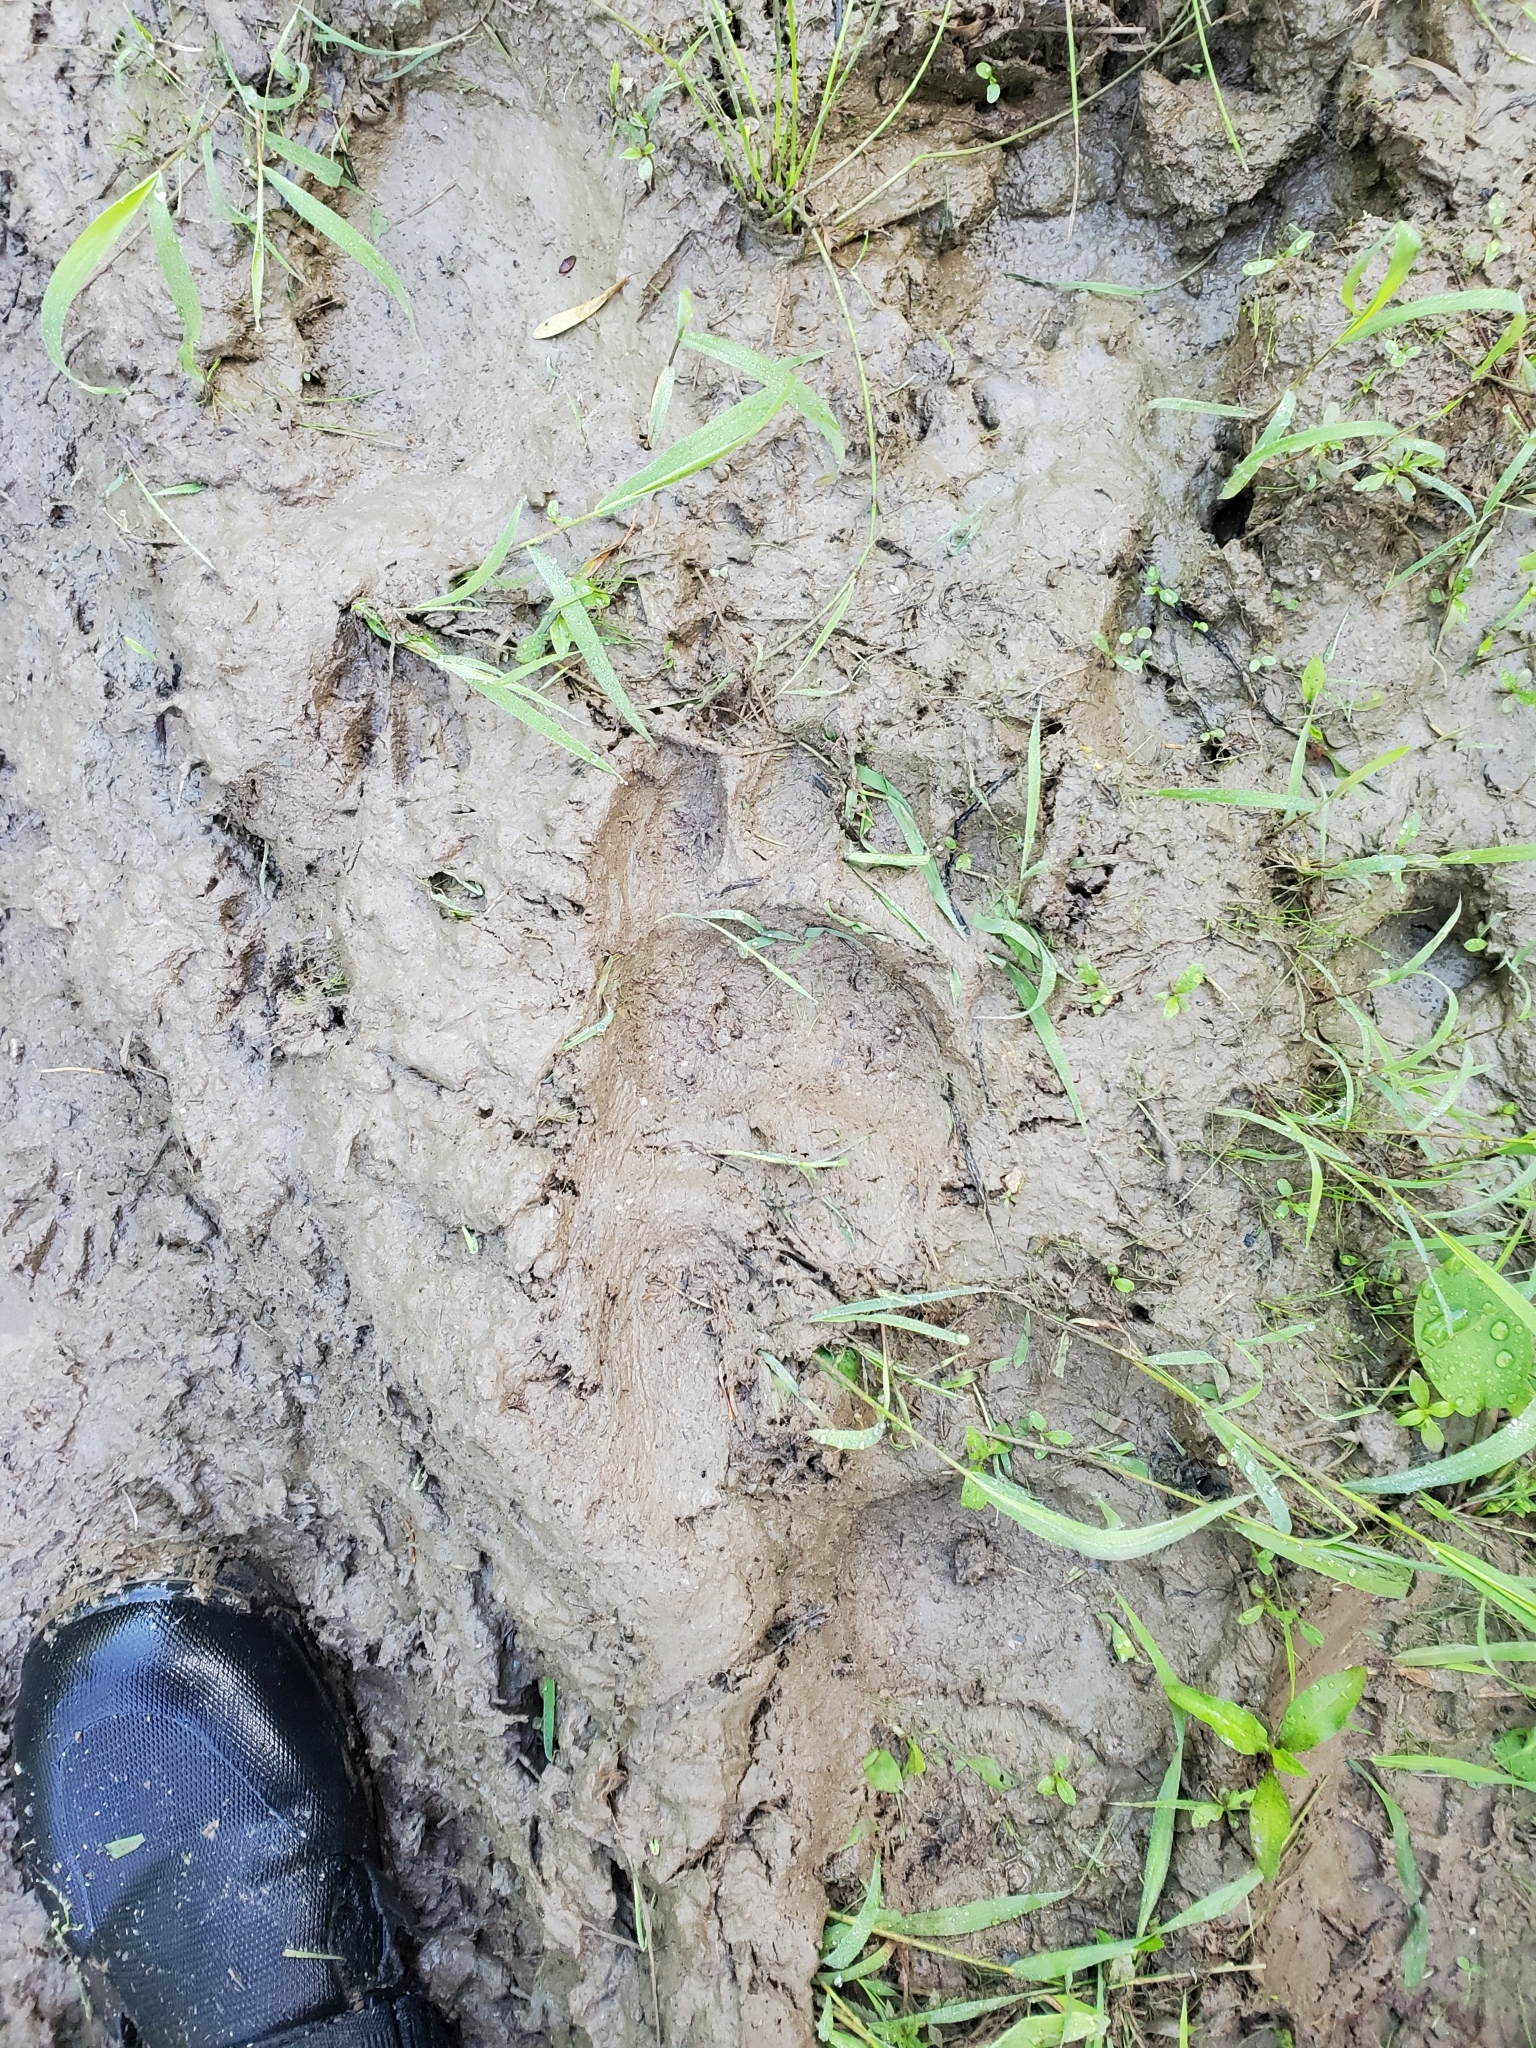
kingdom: Animalia
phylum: Chordata
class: Mammalia
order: Carnivora
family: Ursidae
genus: Ursus
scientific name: Ursus americanus
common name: American black bear
